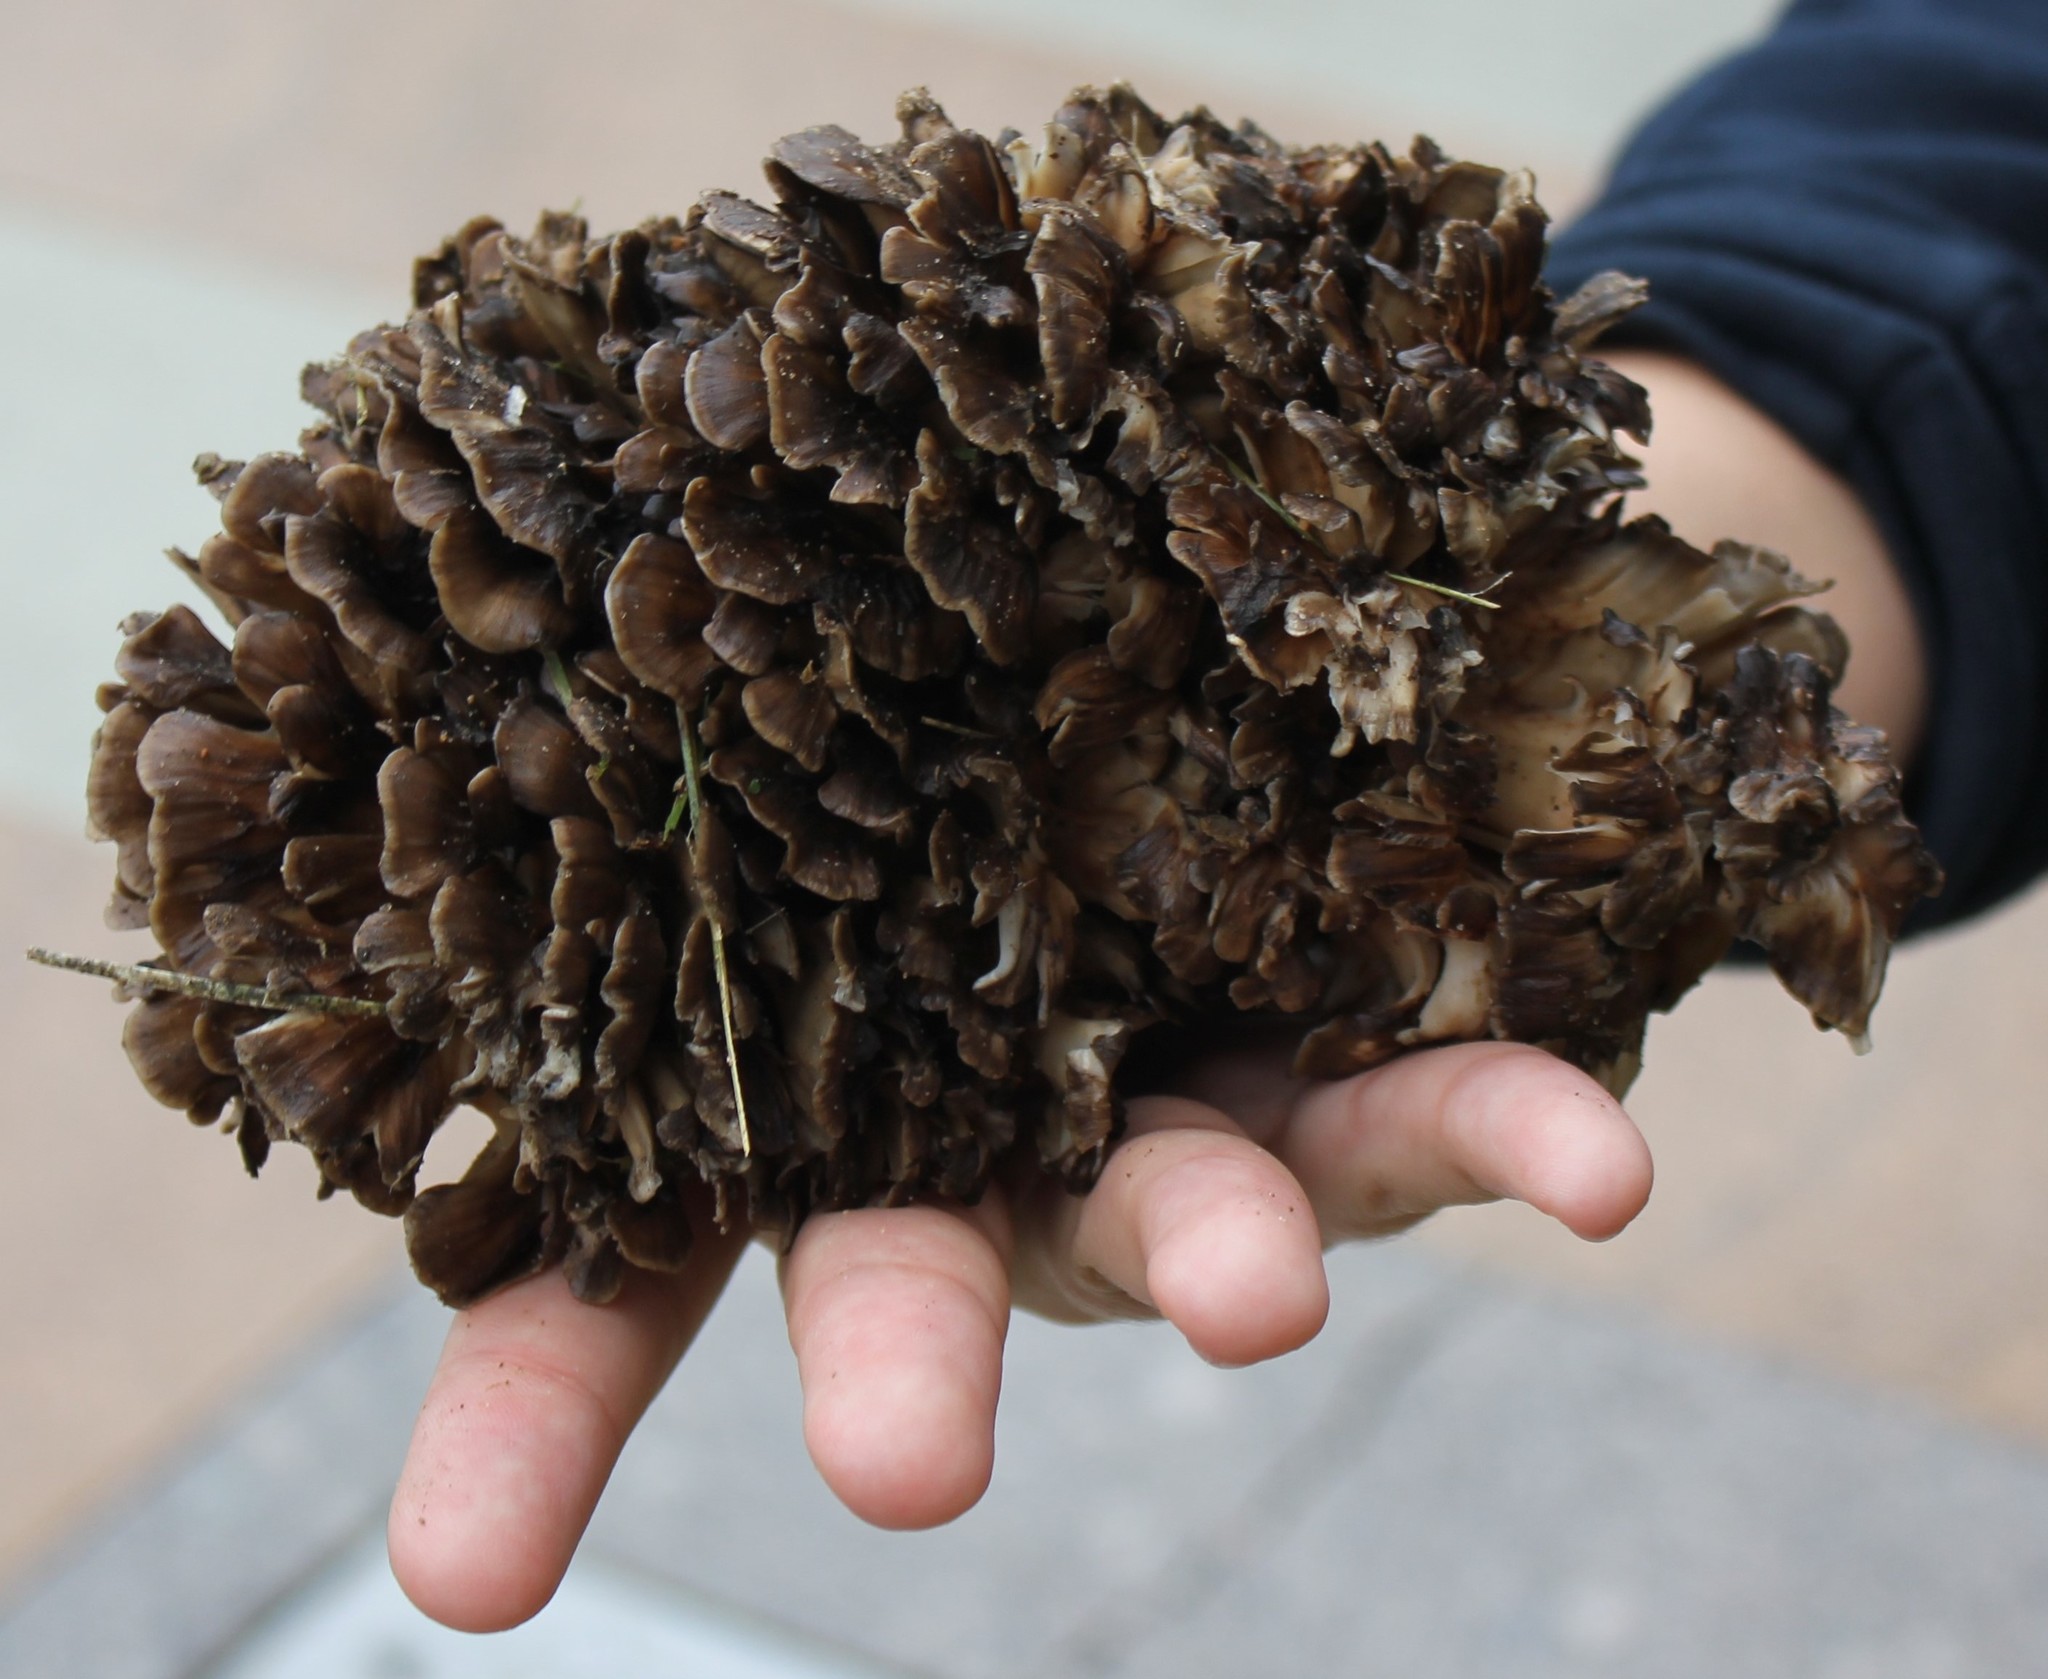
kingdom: Fungi
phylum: Basidiomycota
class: Agaricomycetes
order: Polyporales
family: Grifolaceae
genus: Grifola
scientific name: Grifola frondosa
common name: Hen of the woods
